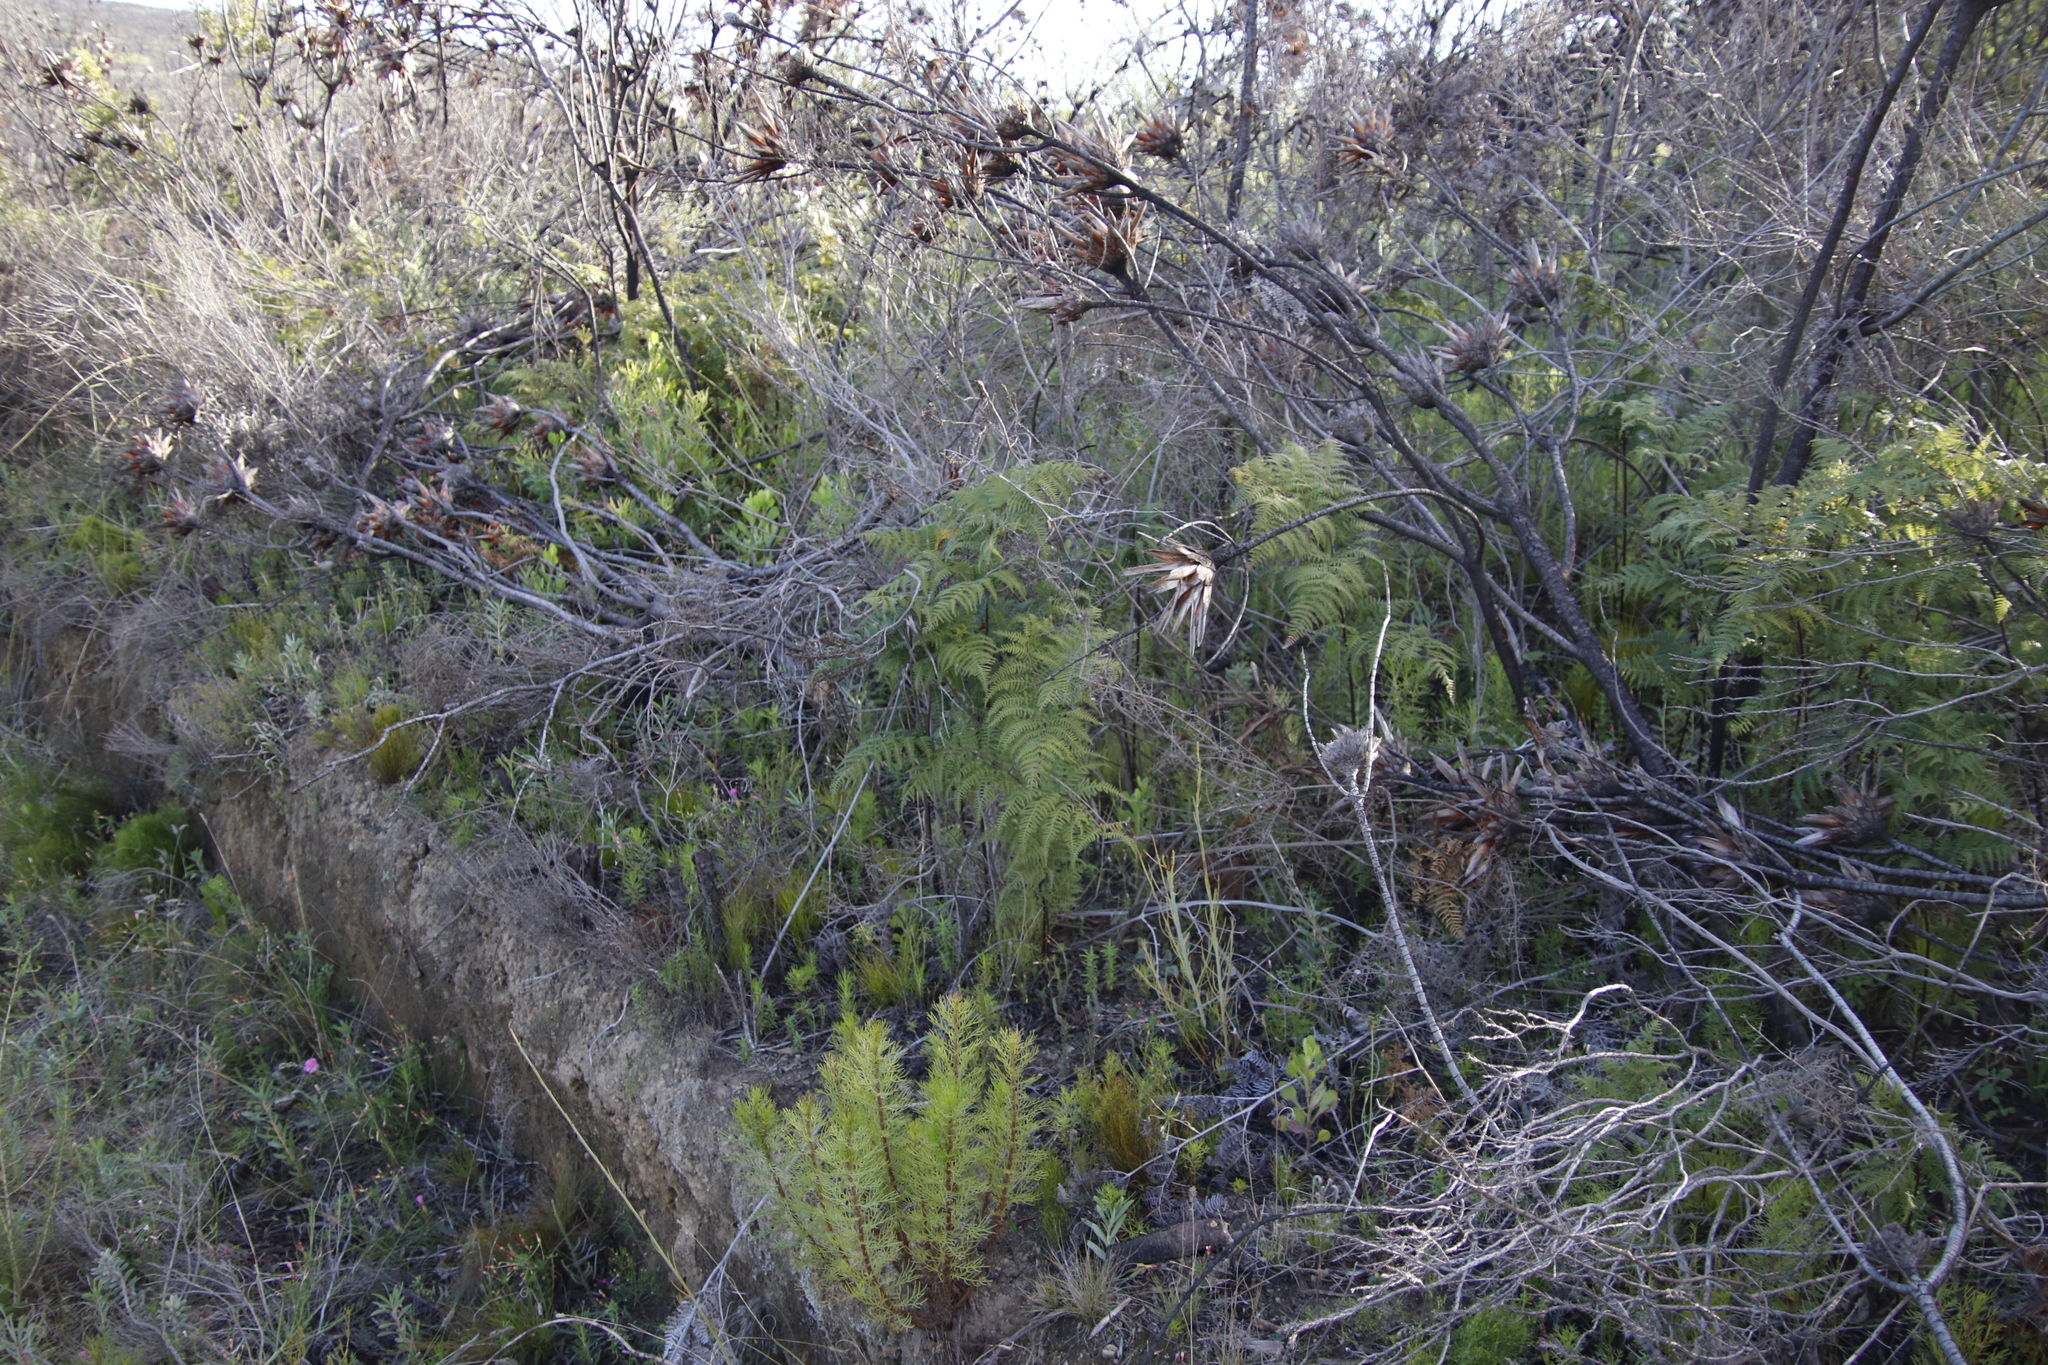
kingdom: Plantae
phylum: Tracheophyta
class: Polypodiopsida
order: Polypodiales
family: Dennstaedtiaceae
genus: Pteridium
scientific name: Pteridium aquilinum
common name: Bracken
